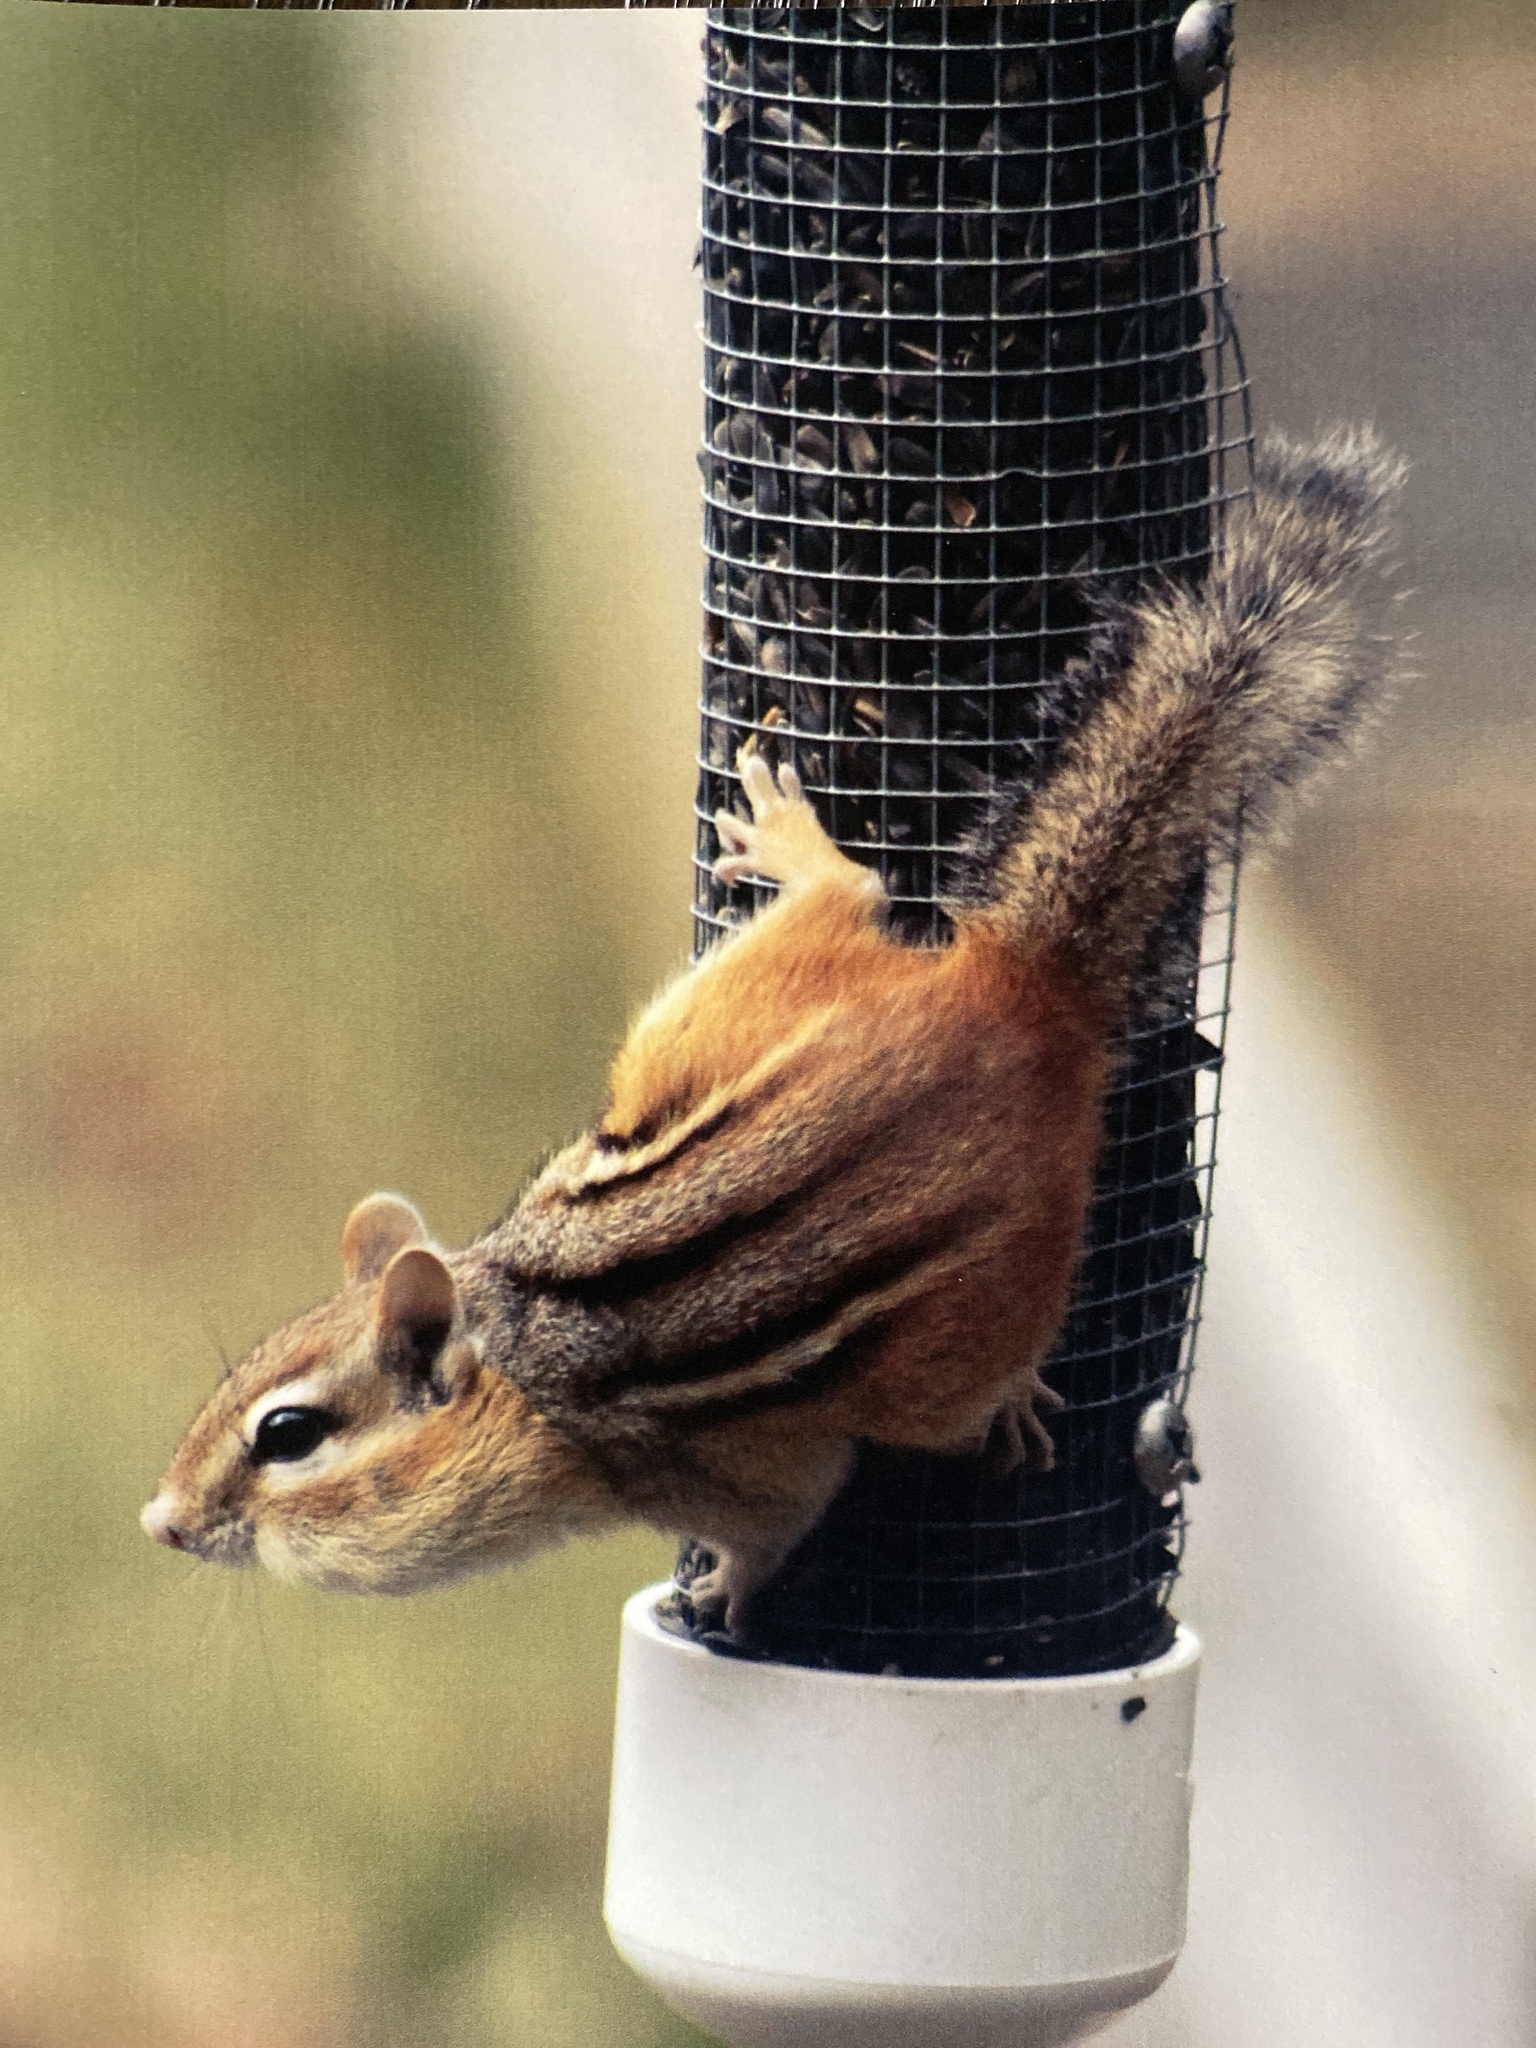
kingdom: Animalia
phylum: Chordata
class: Mammalia
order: Rodentia
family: Sciuridae
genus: Tamias
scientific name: Tamias striatus
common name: Eastern chipmunk
